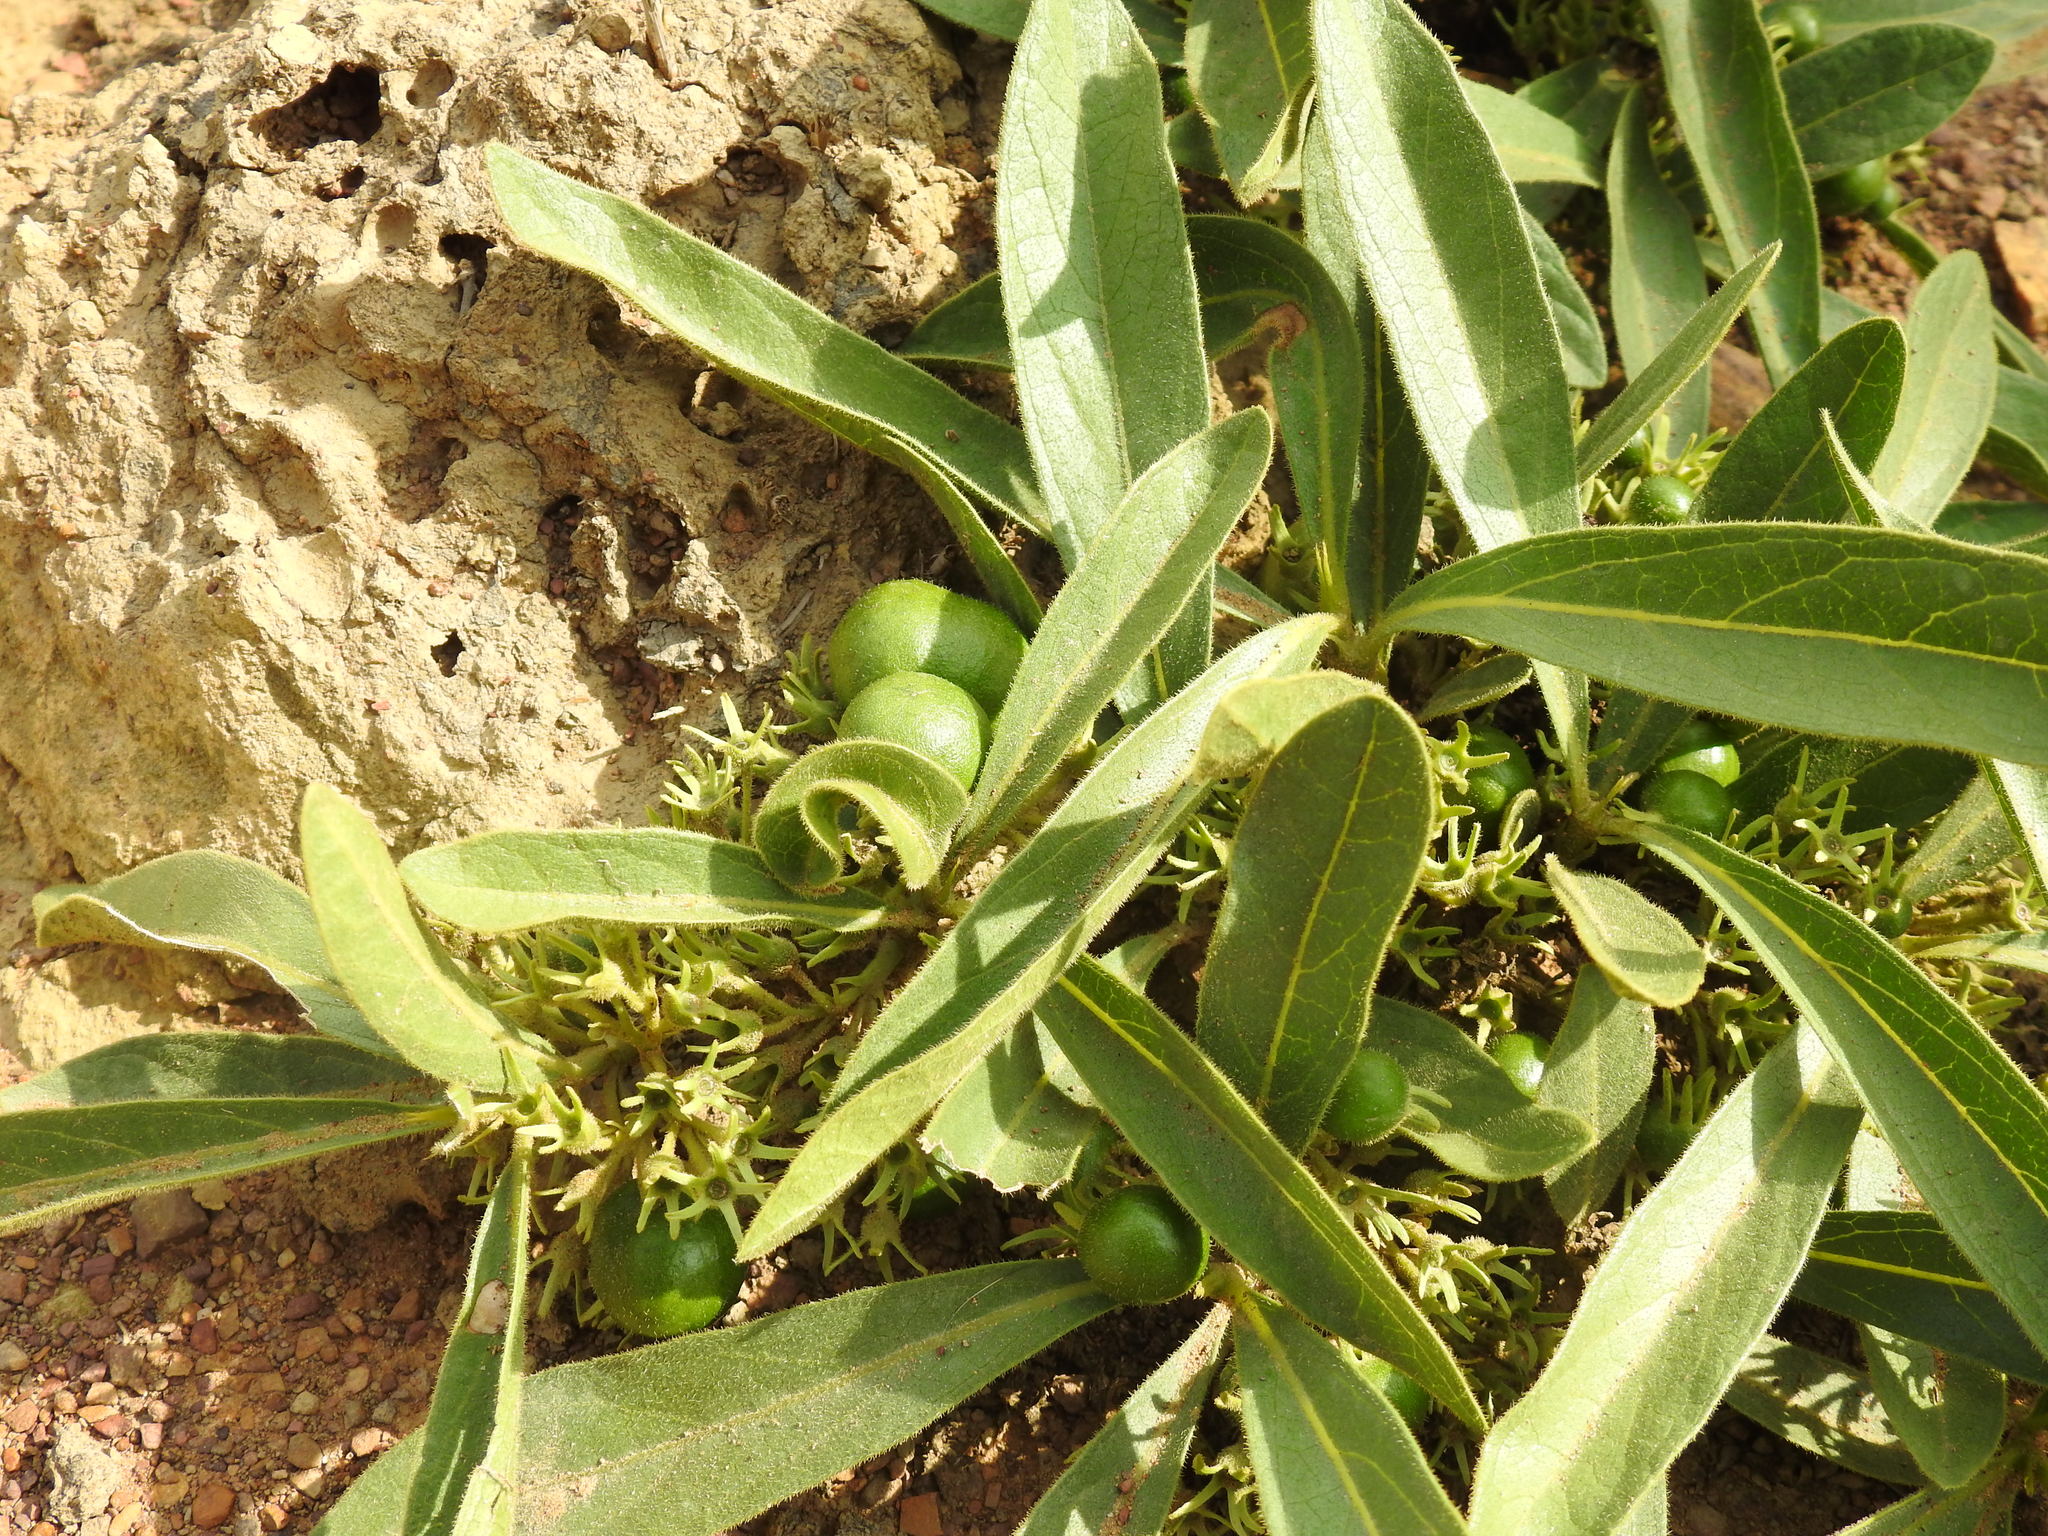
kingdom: Plantae
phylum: Tracheophyta
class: Magnoliopsida
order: Gentianales
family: Rubiaceae
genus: Pygmaeothamnus
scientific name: Pygmaeothamnus zeyheri
